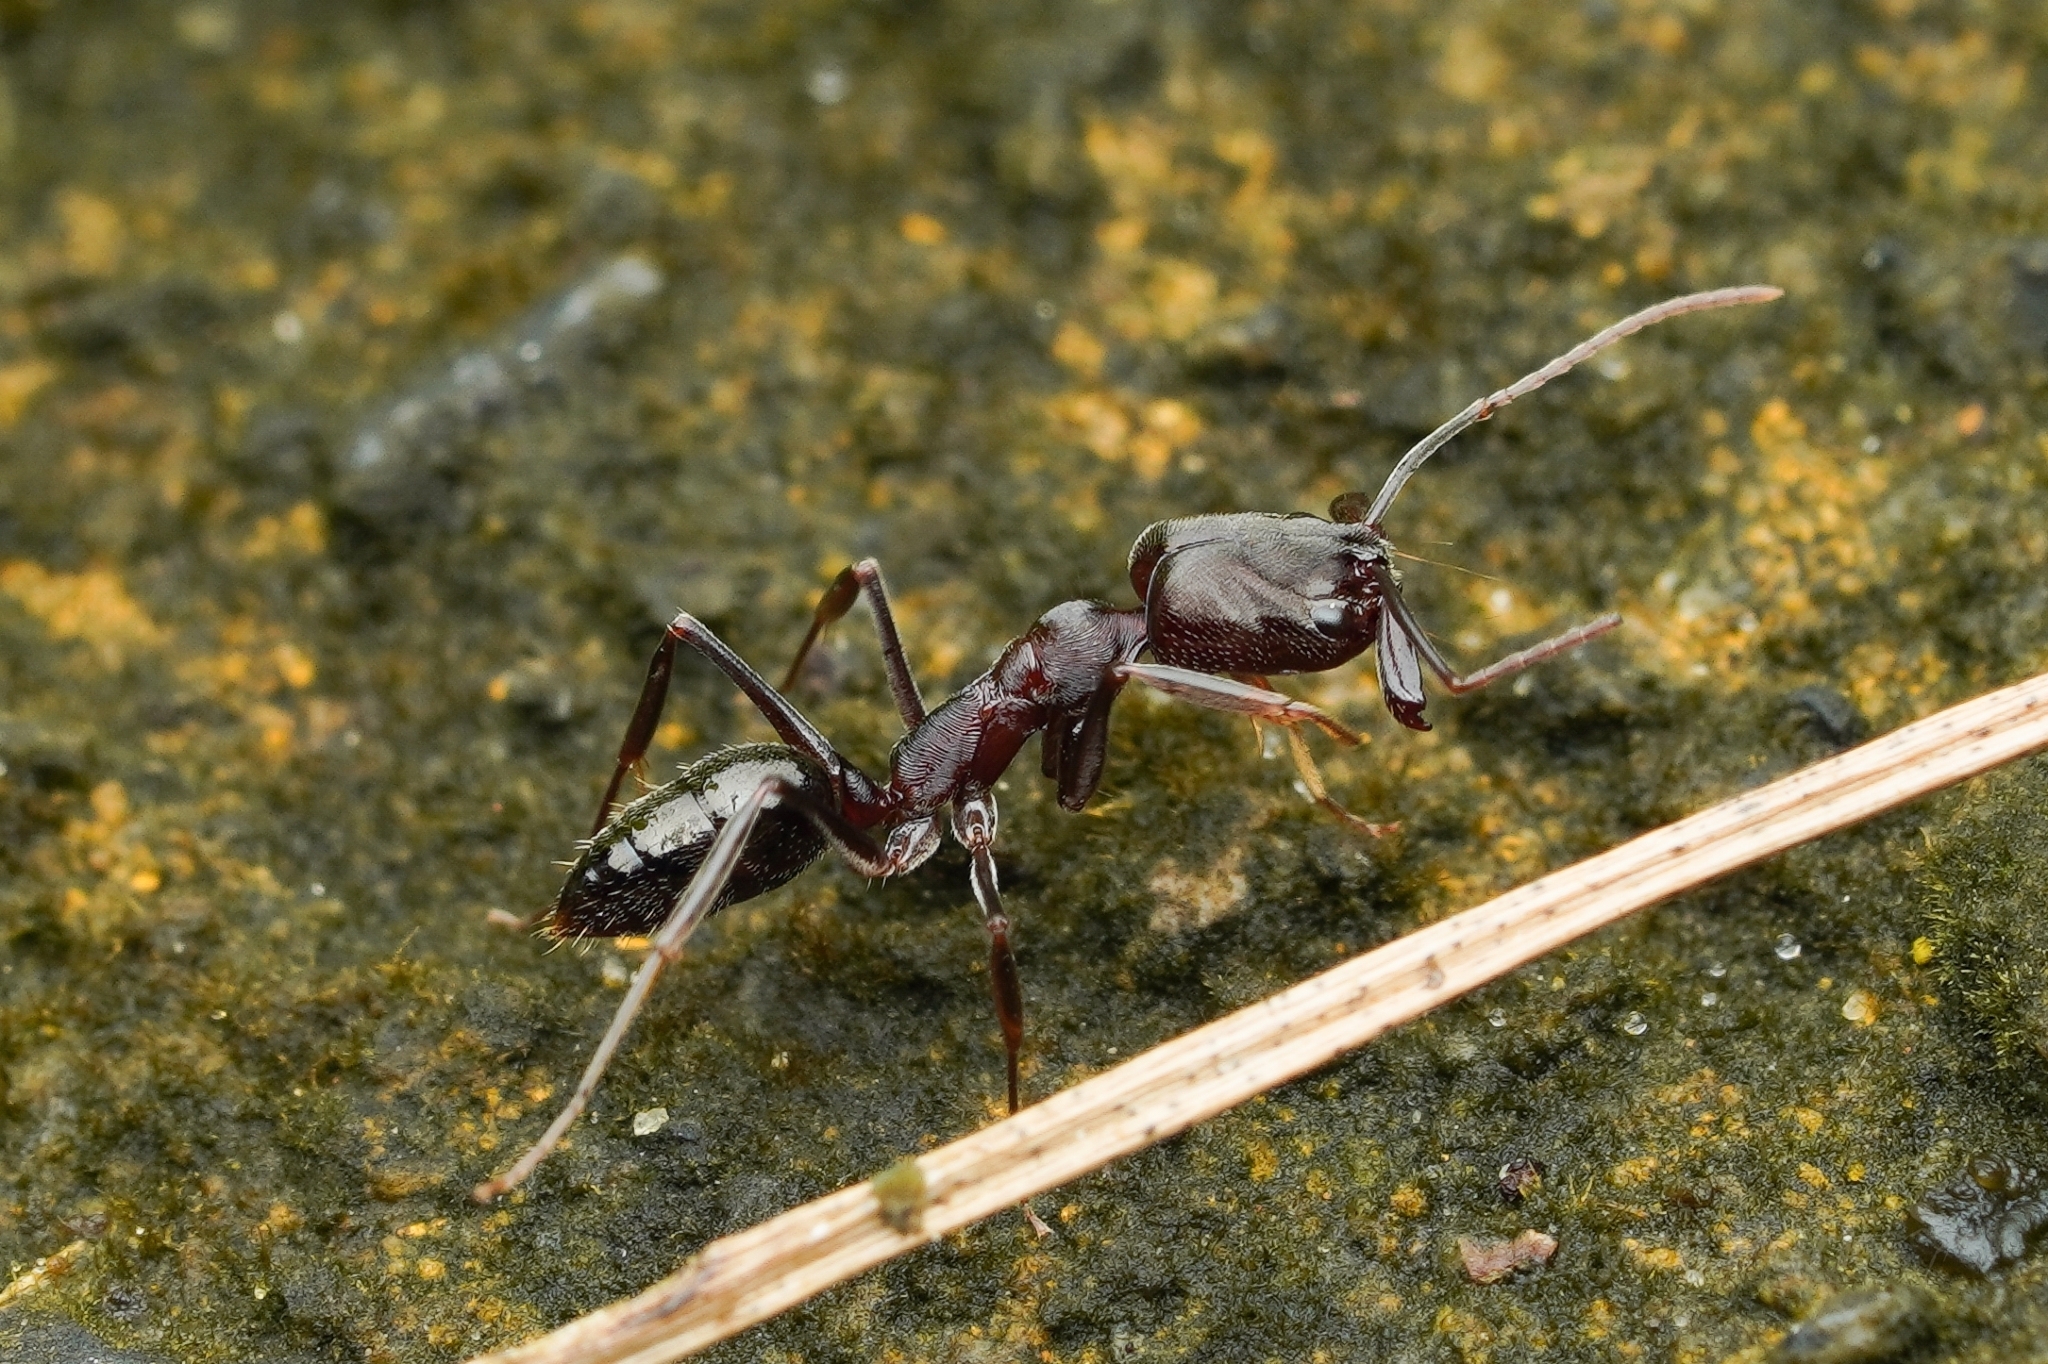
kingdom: Animalia
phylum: Arthropoda
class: Insecta
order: Hymenoptera
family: Formicidae
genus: Odontomachus
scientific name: Odontomachus simillimus
